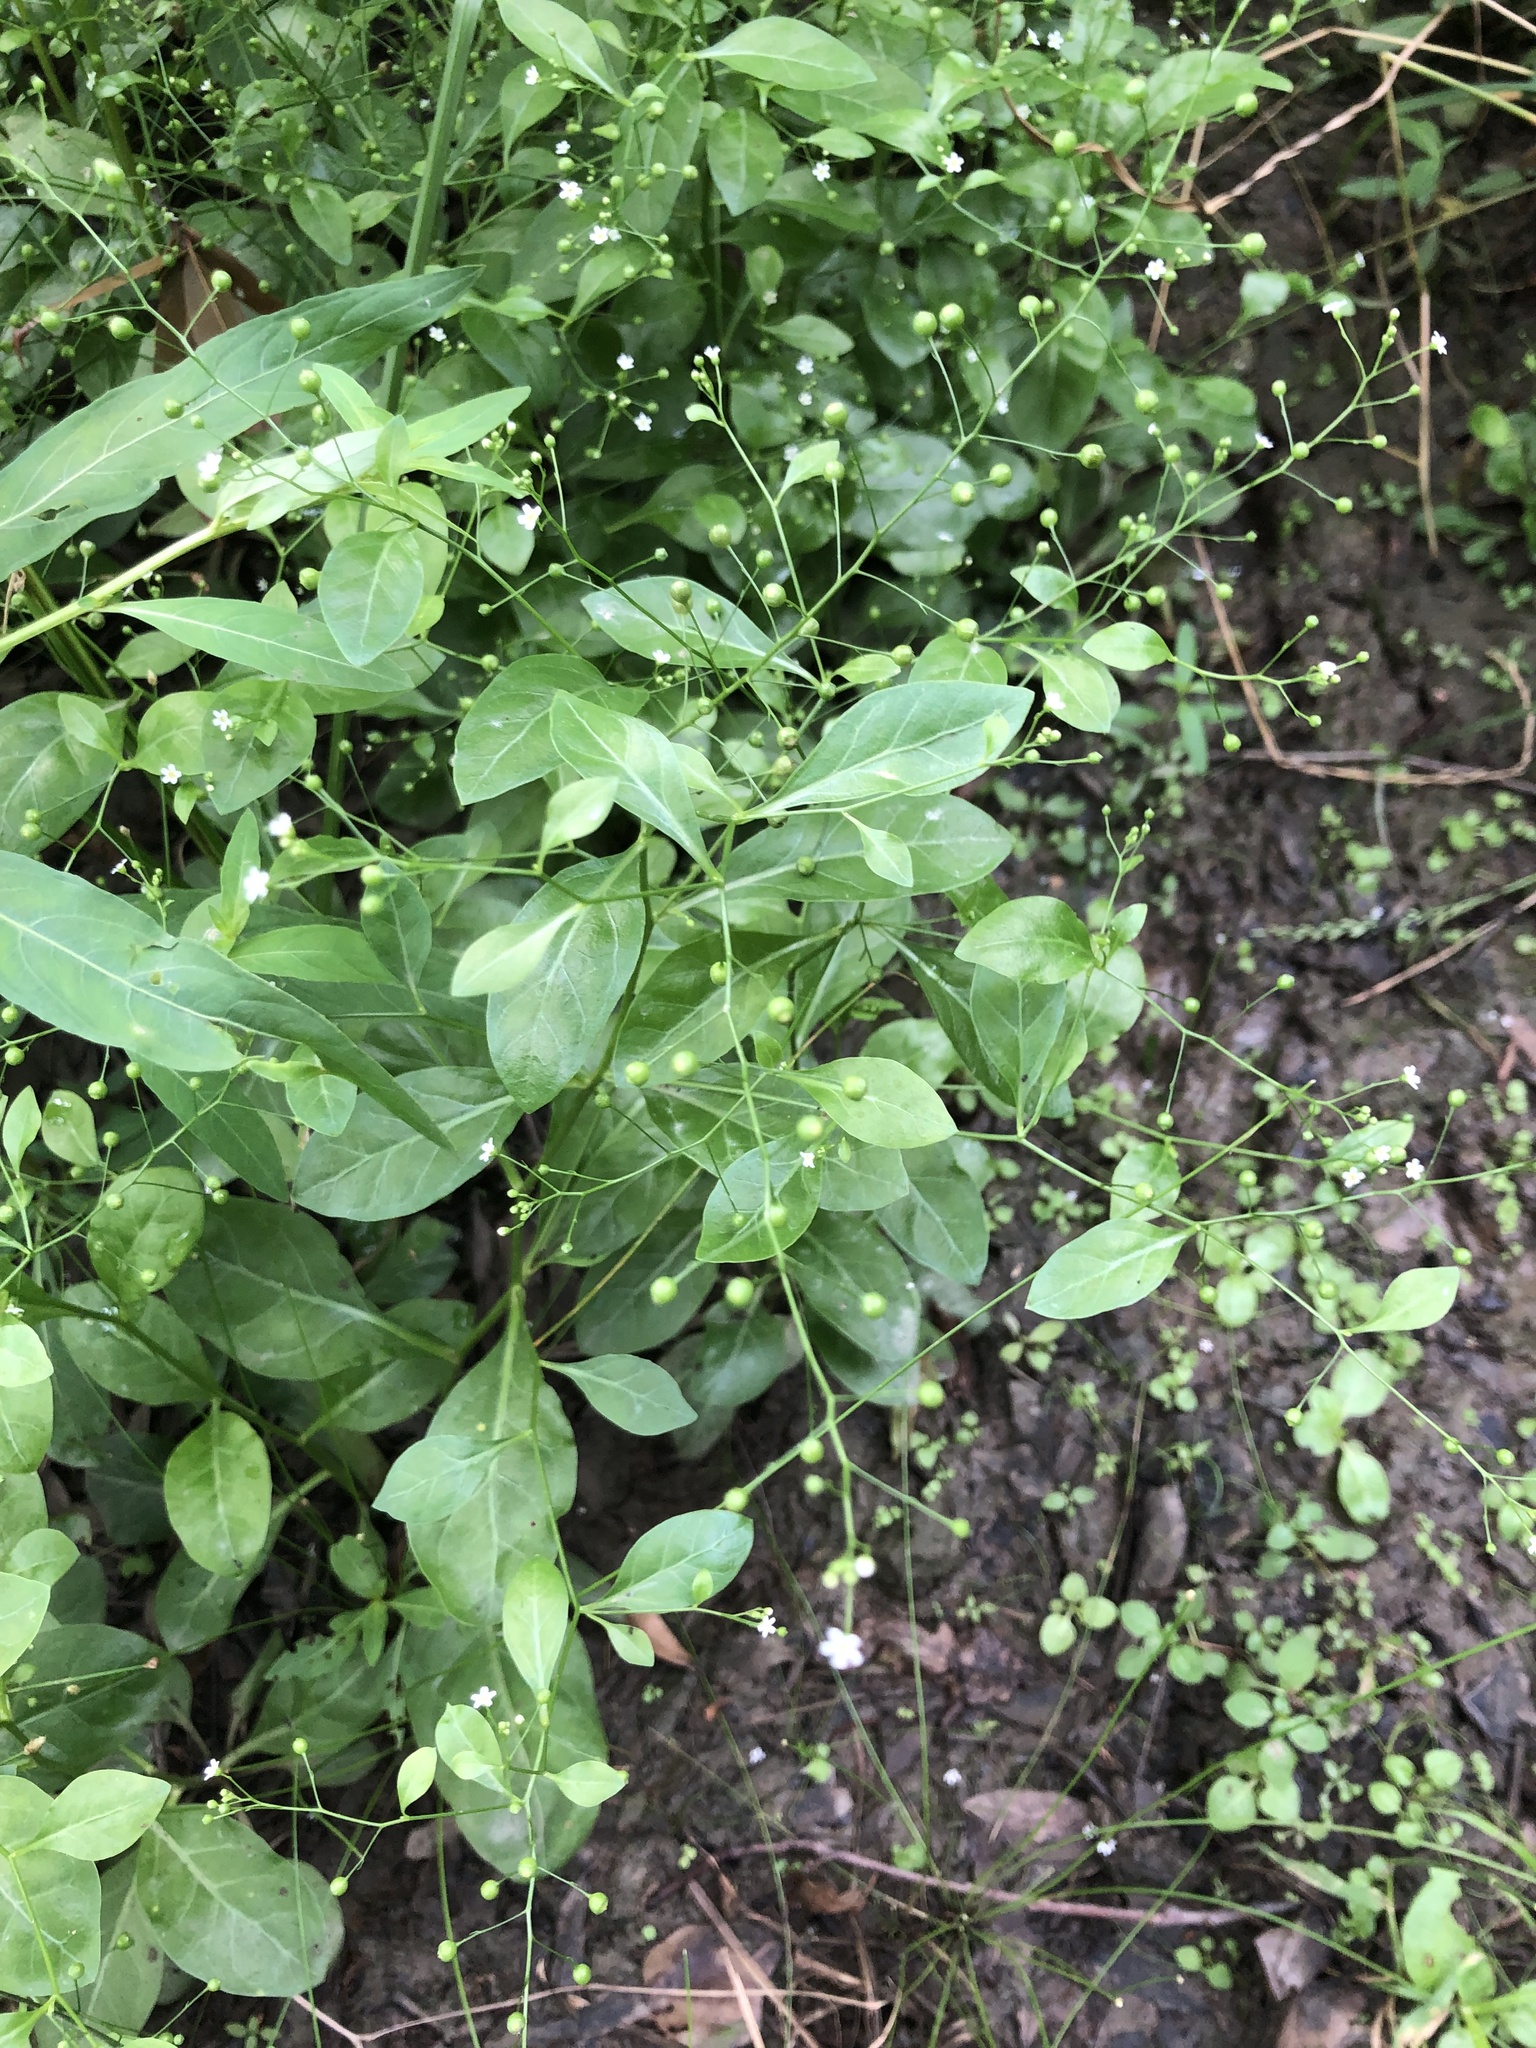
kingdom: Plantae
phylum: Tracheophyta
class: Magnoliopsida
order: Ericales
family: Primulaceae
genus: Samolus
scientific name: Samolus parviflorus
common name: False water pimpernel
